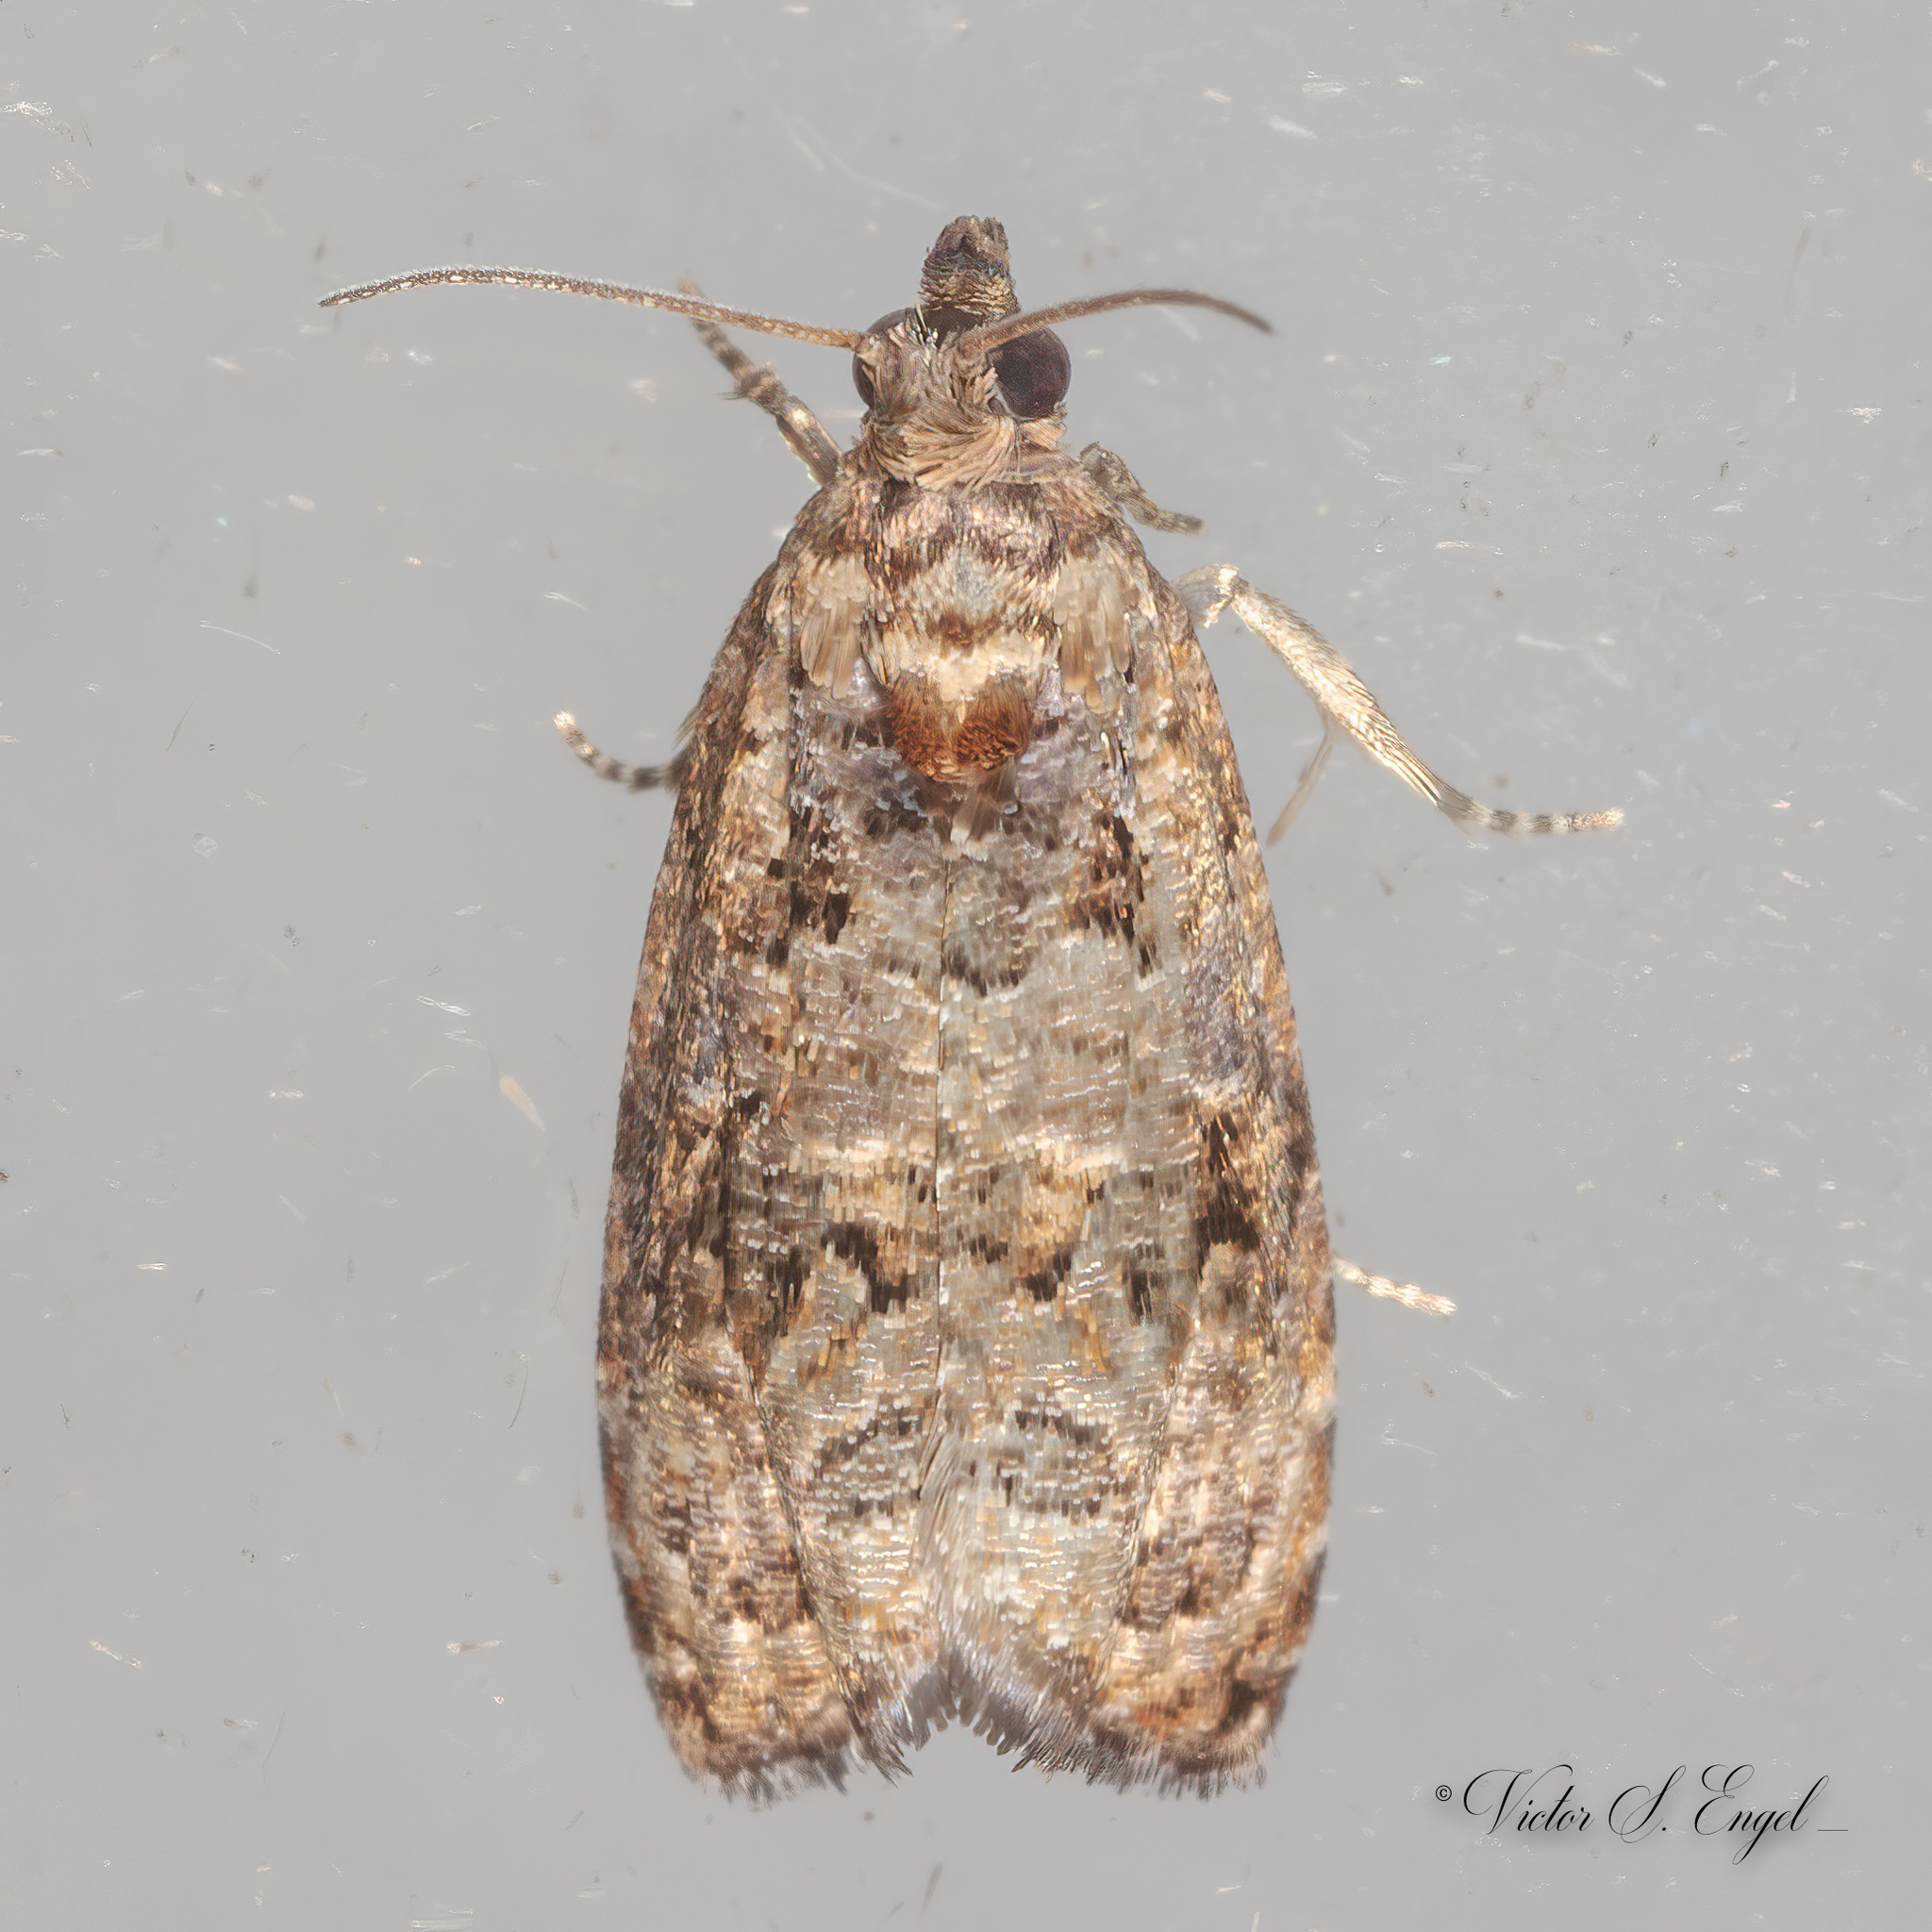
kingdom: Animalia
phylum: Arthropoda
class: Insecta
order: Lepidoptera
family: Tortricidae
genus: Endothenia
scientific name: Endothenia hebesana
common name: Verbena bud moth
